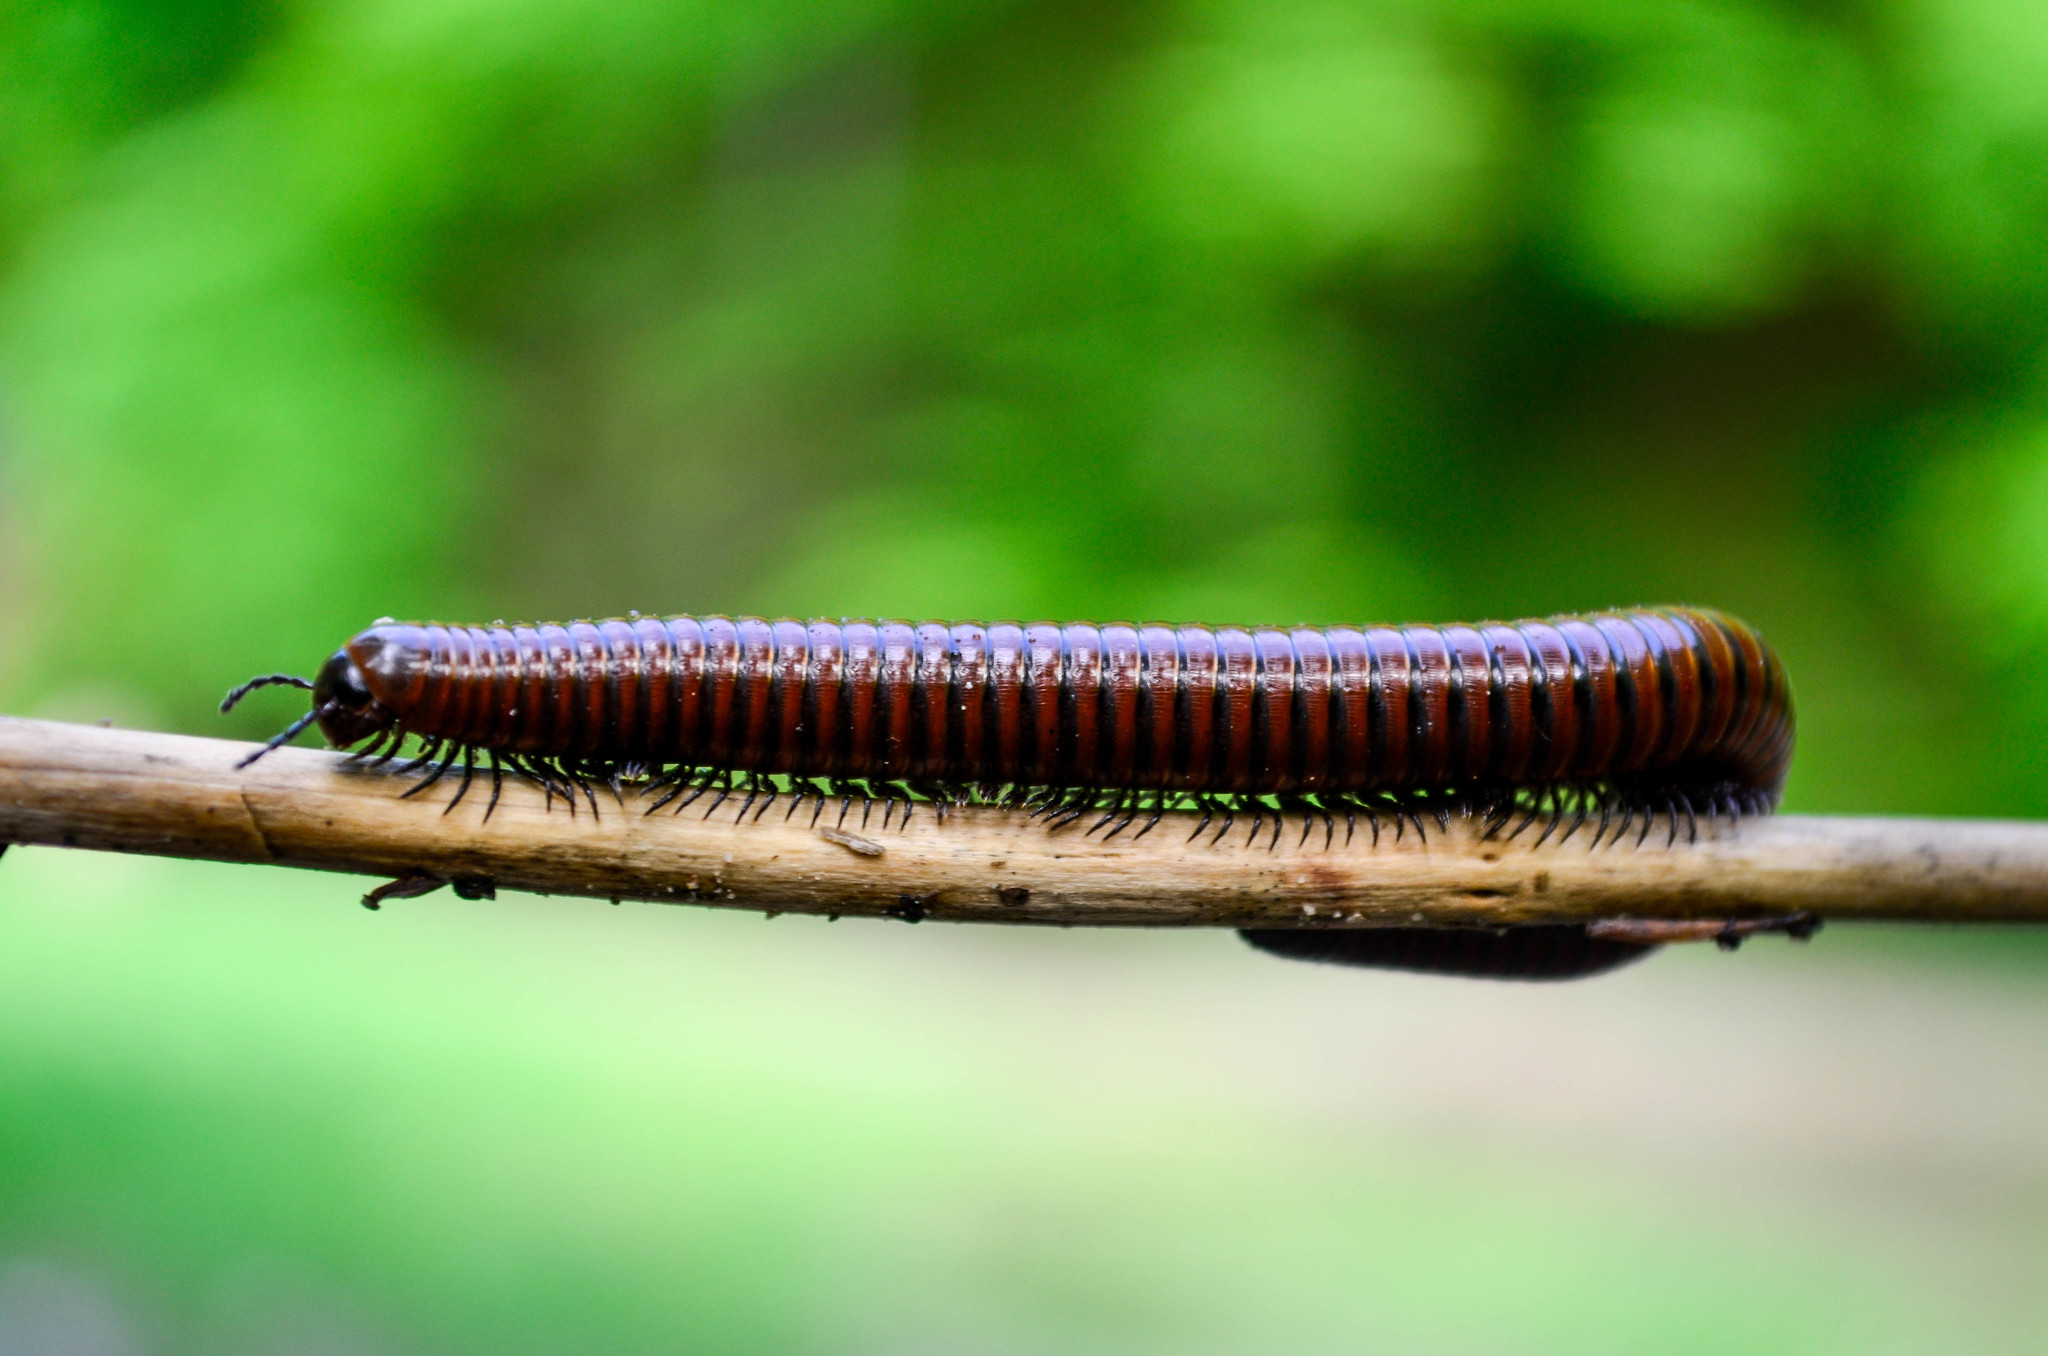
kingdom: Animalia
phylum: Arthropoda
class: Diplopoda
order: Julida
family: Julidae
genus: Pachyiulus
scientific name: Pachyiulus hungaricus
